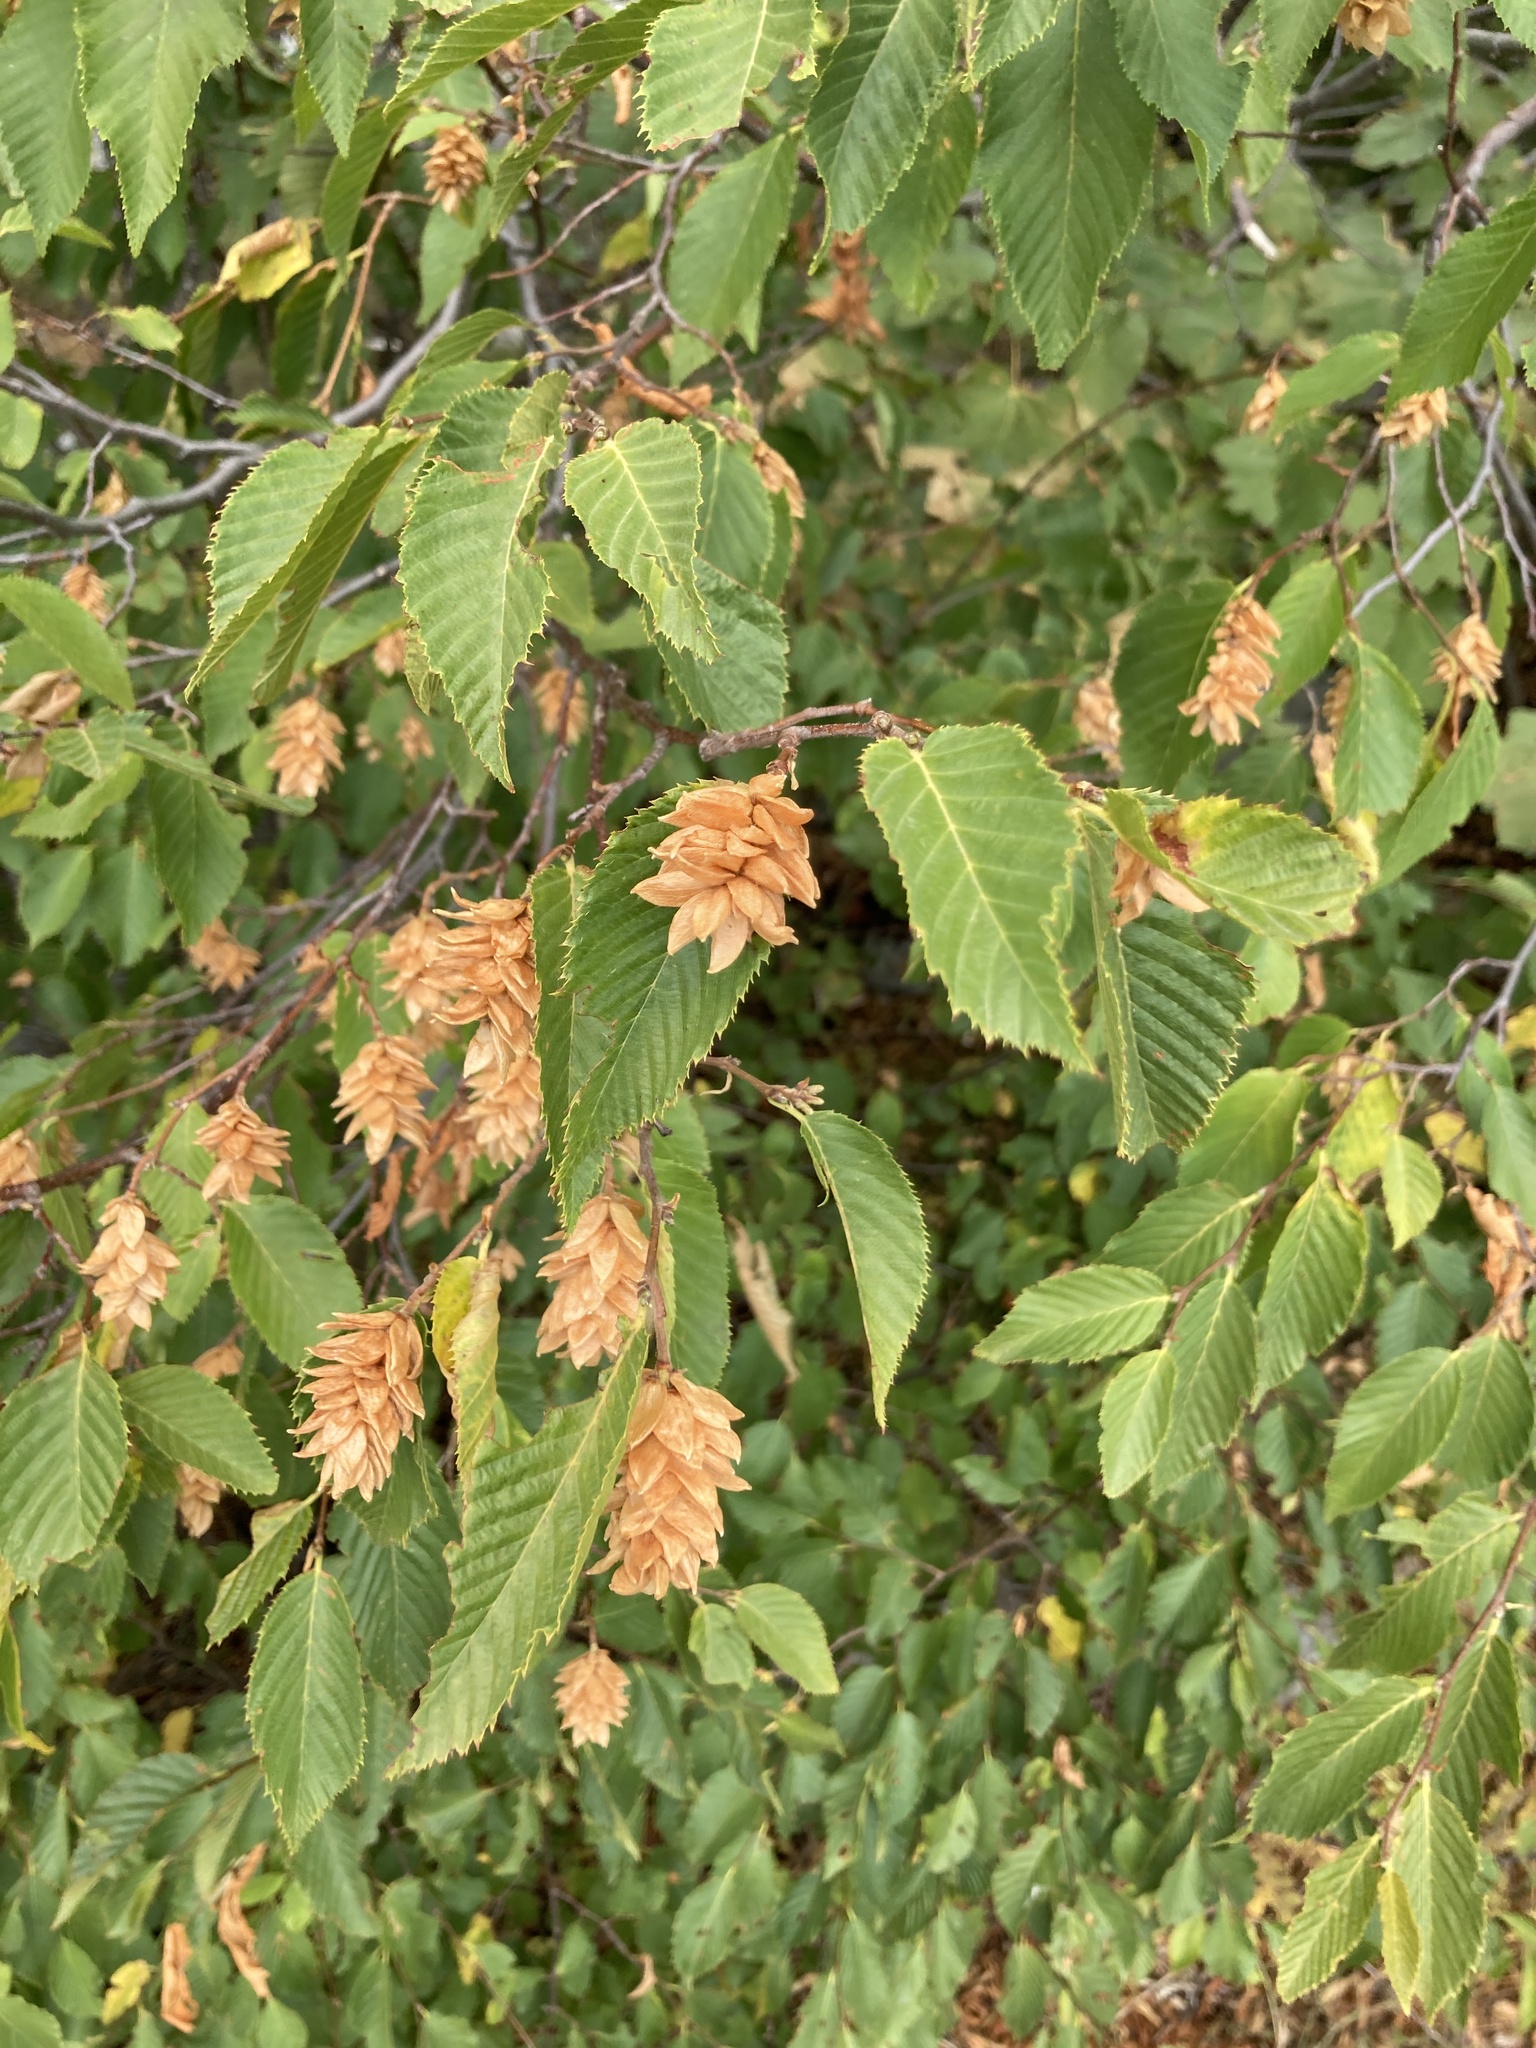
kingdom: Plantae
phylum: Tracheophyta
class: Magnoliopsida
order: Fagales
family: Betulaceae
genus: Ostrya
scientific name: Ostrya carpinifolia
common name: European hop-hornbeam
